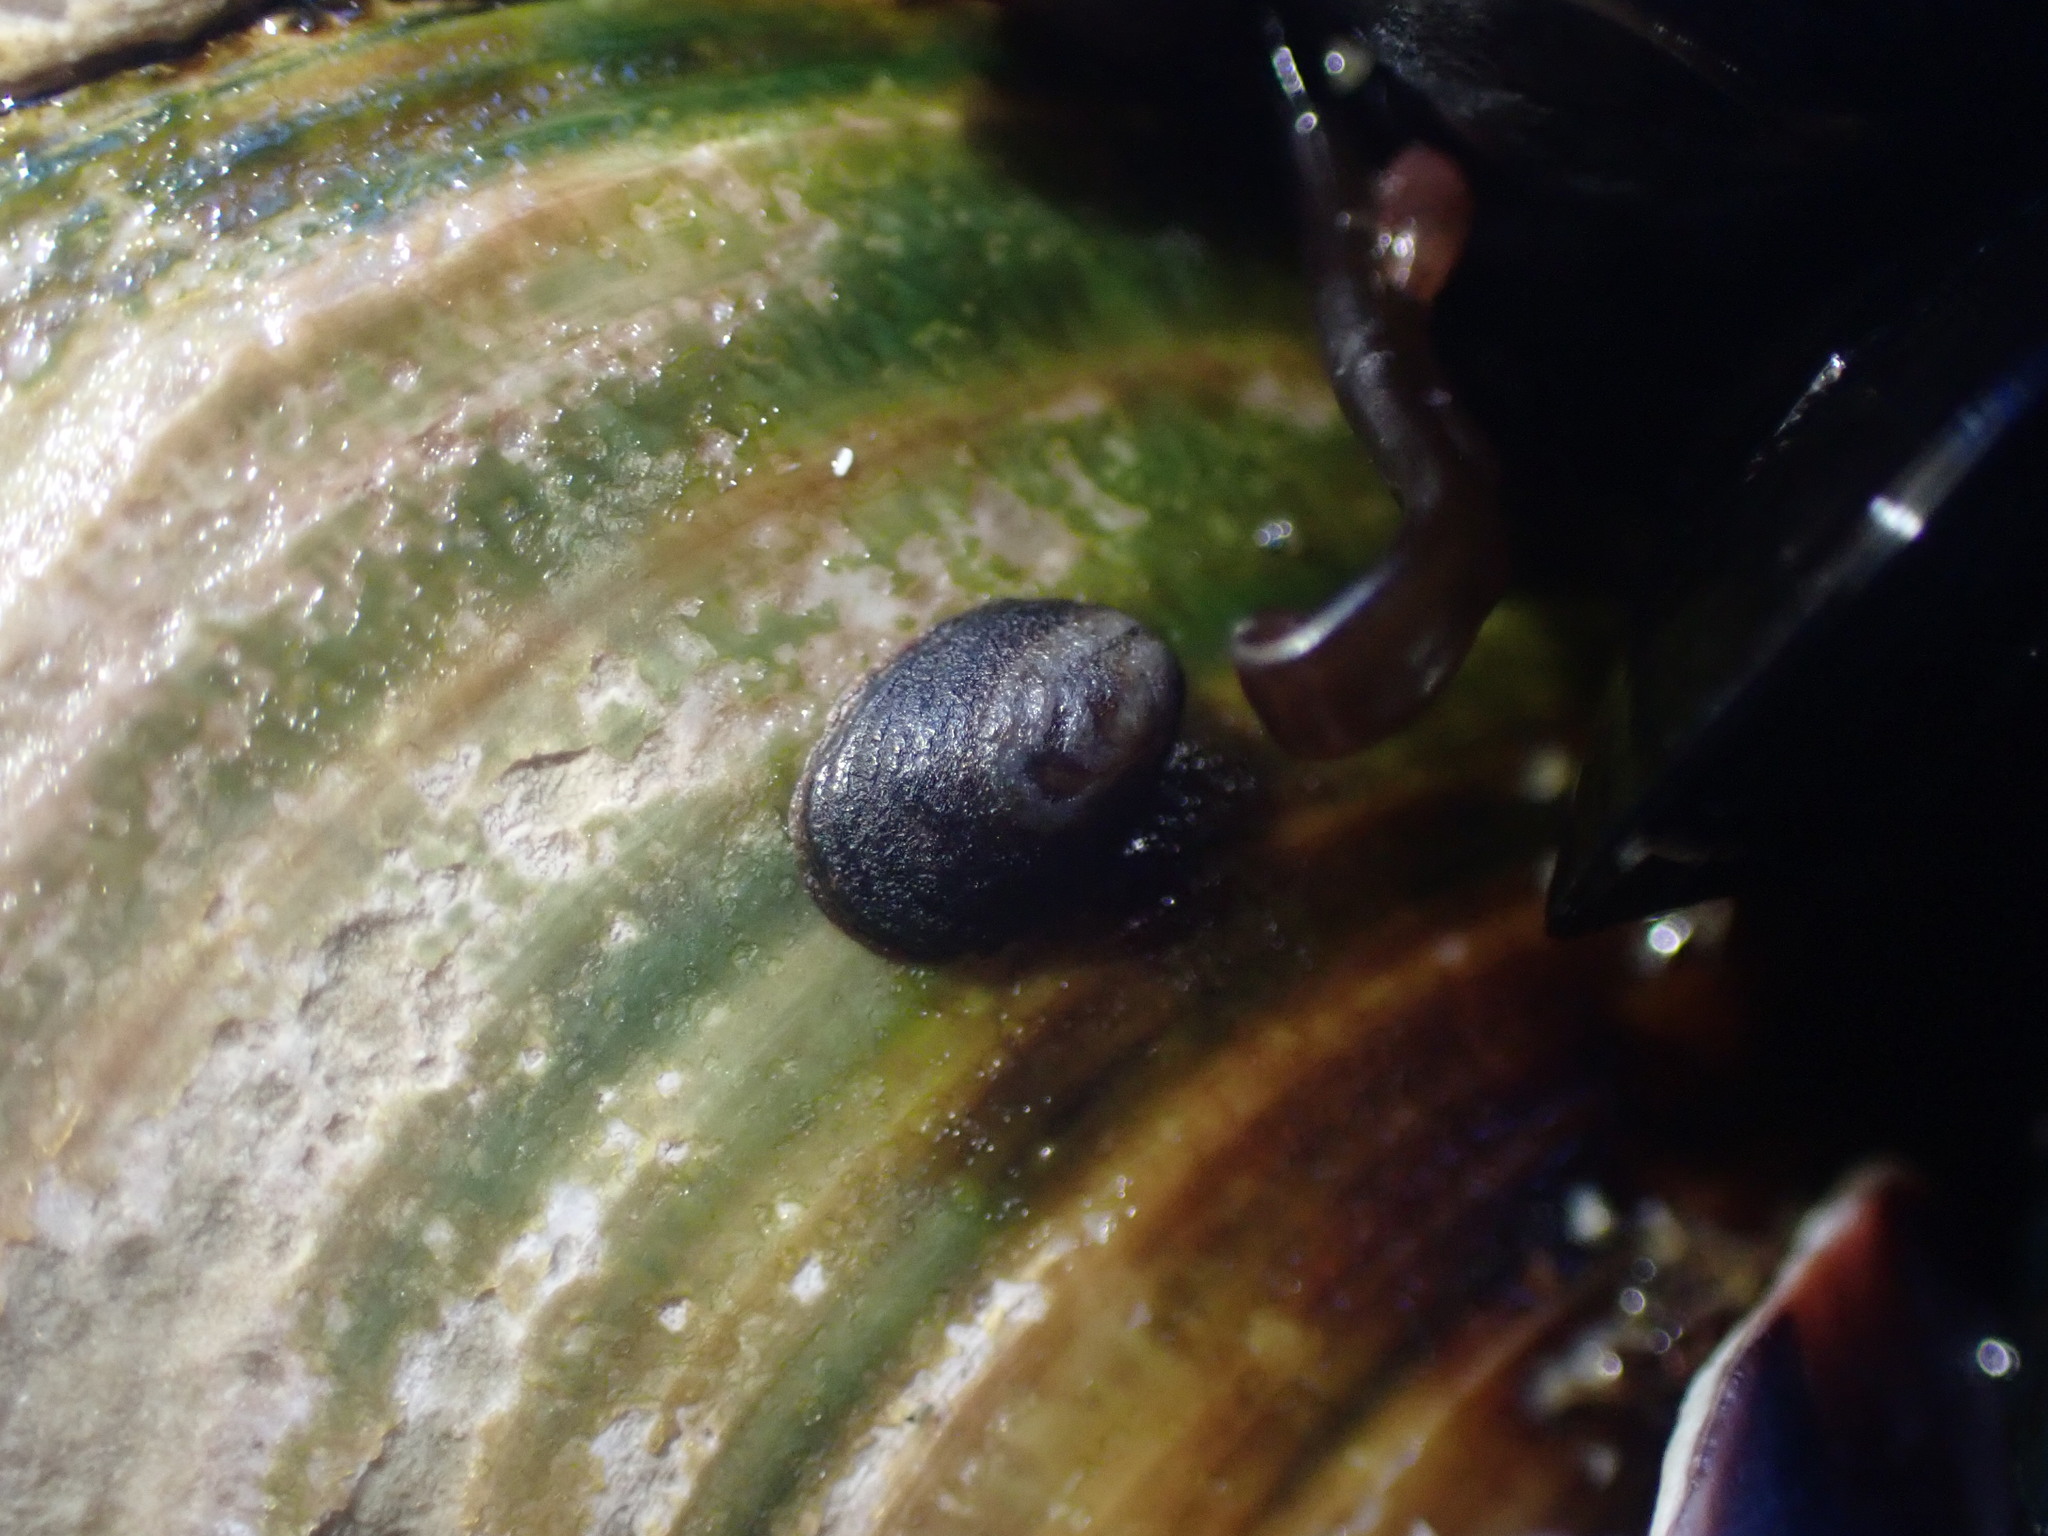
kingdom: Animalia
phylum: Mollusca
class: Gastropoda
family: Lottiidae
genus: Notoacmea
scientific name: Notoacmea parviconoidea
